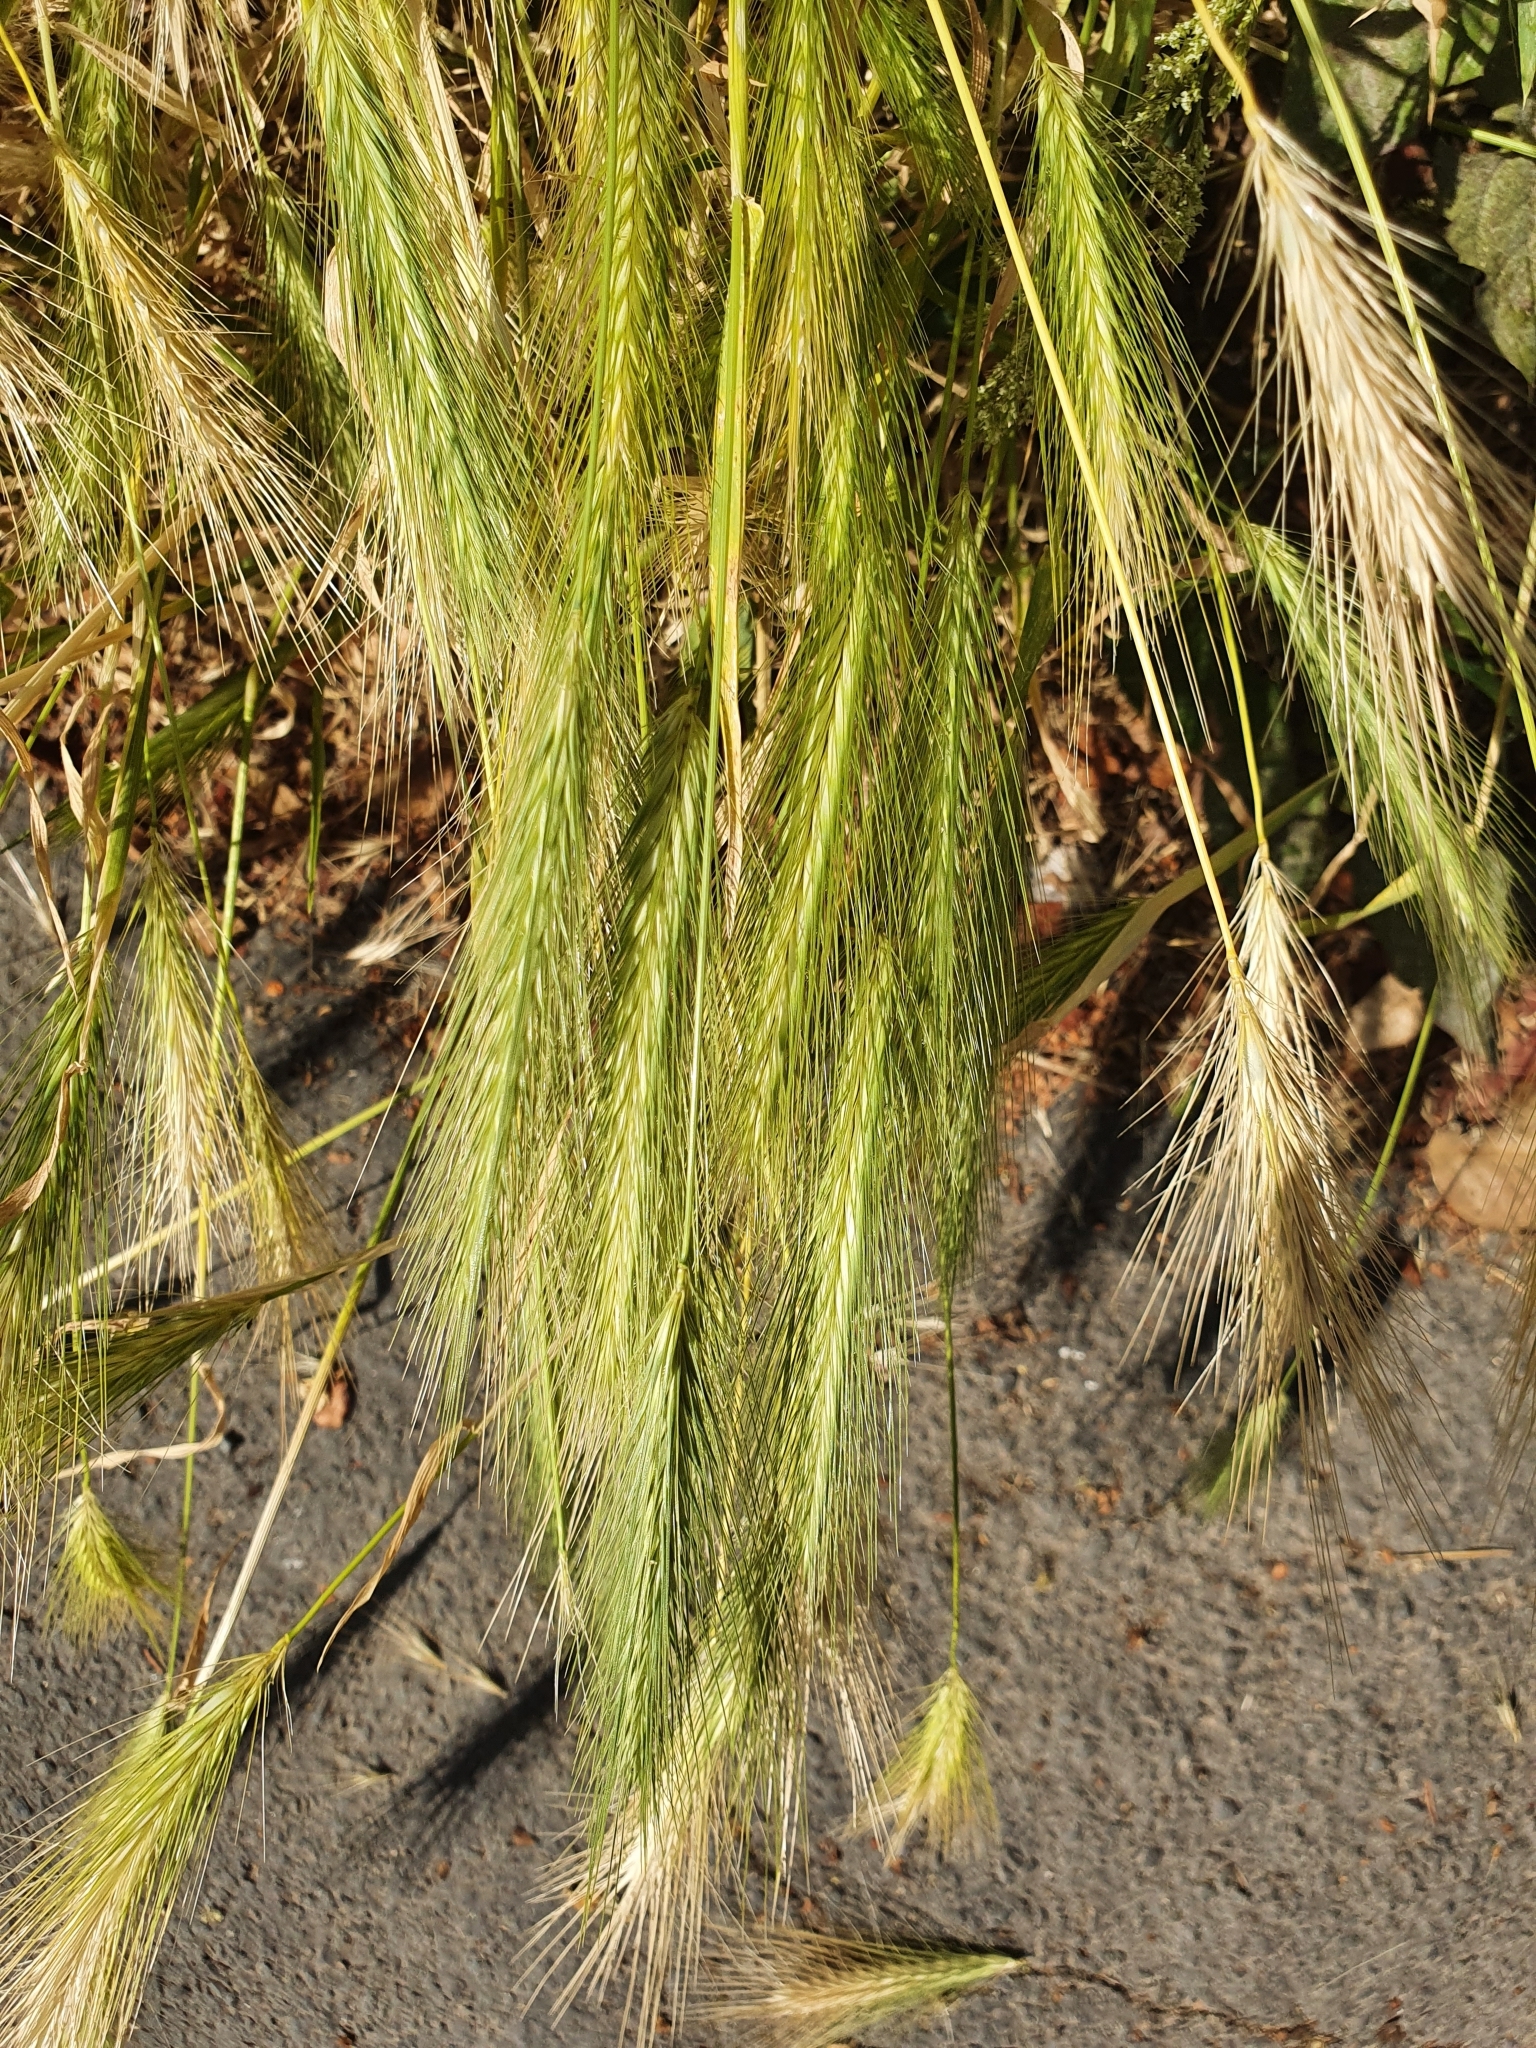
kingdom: Plantae
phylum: Tracheophyta
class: Liliopsida
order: Poales
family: Poaceae
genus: Hordeum
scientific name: Hordeum murinum
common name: Wall barley
